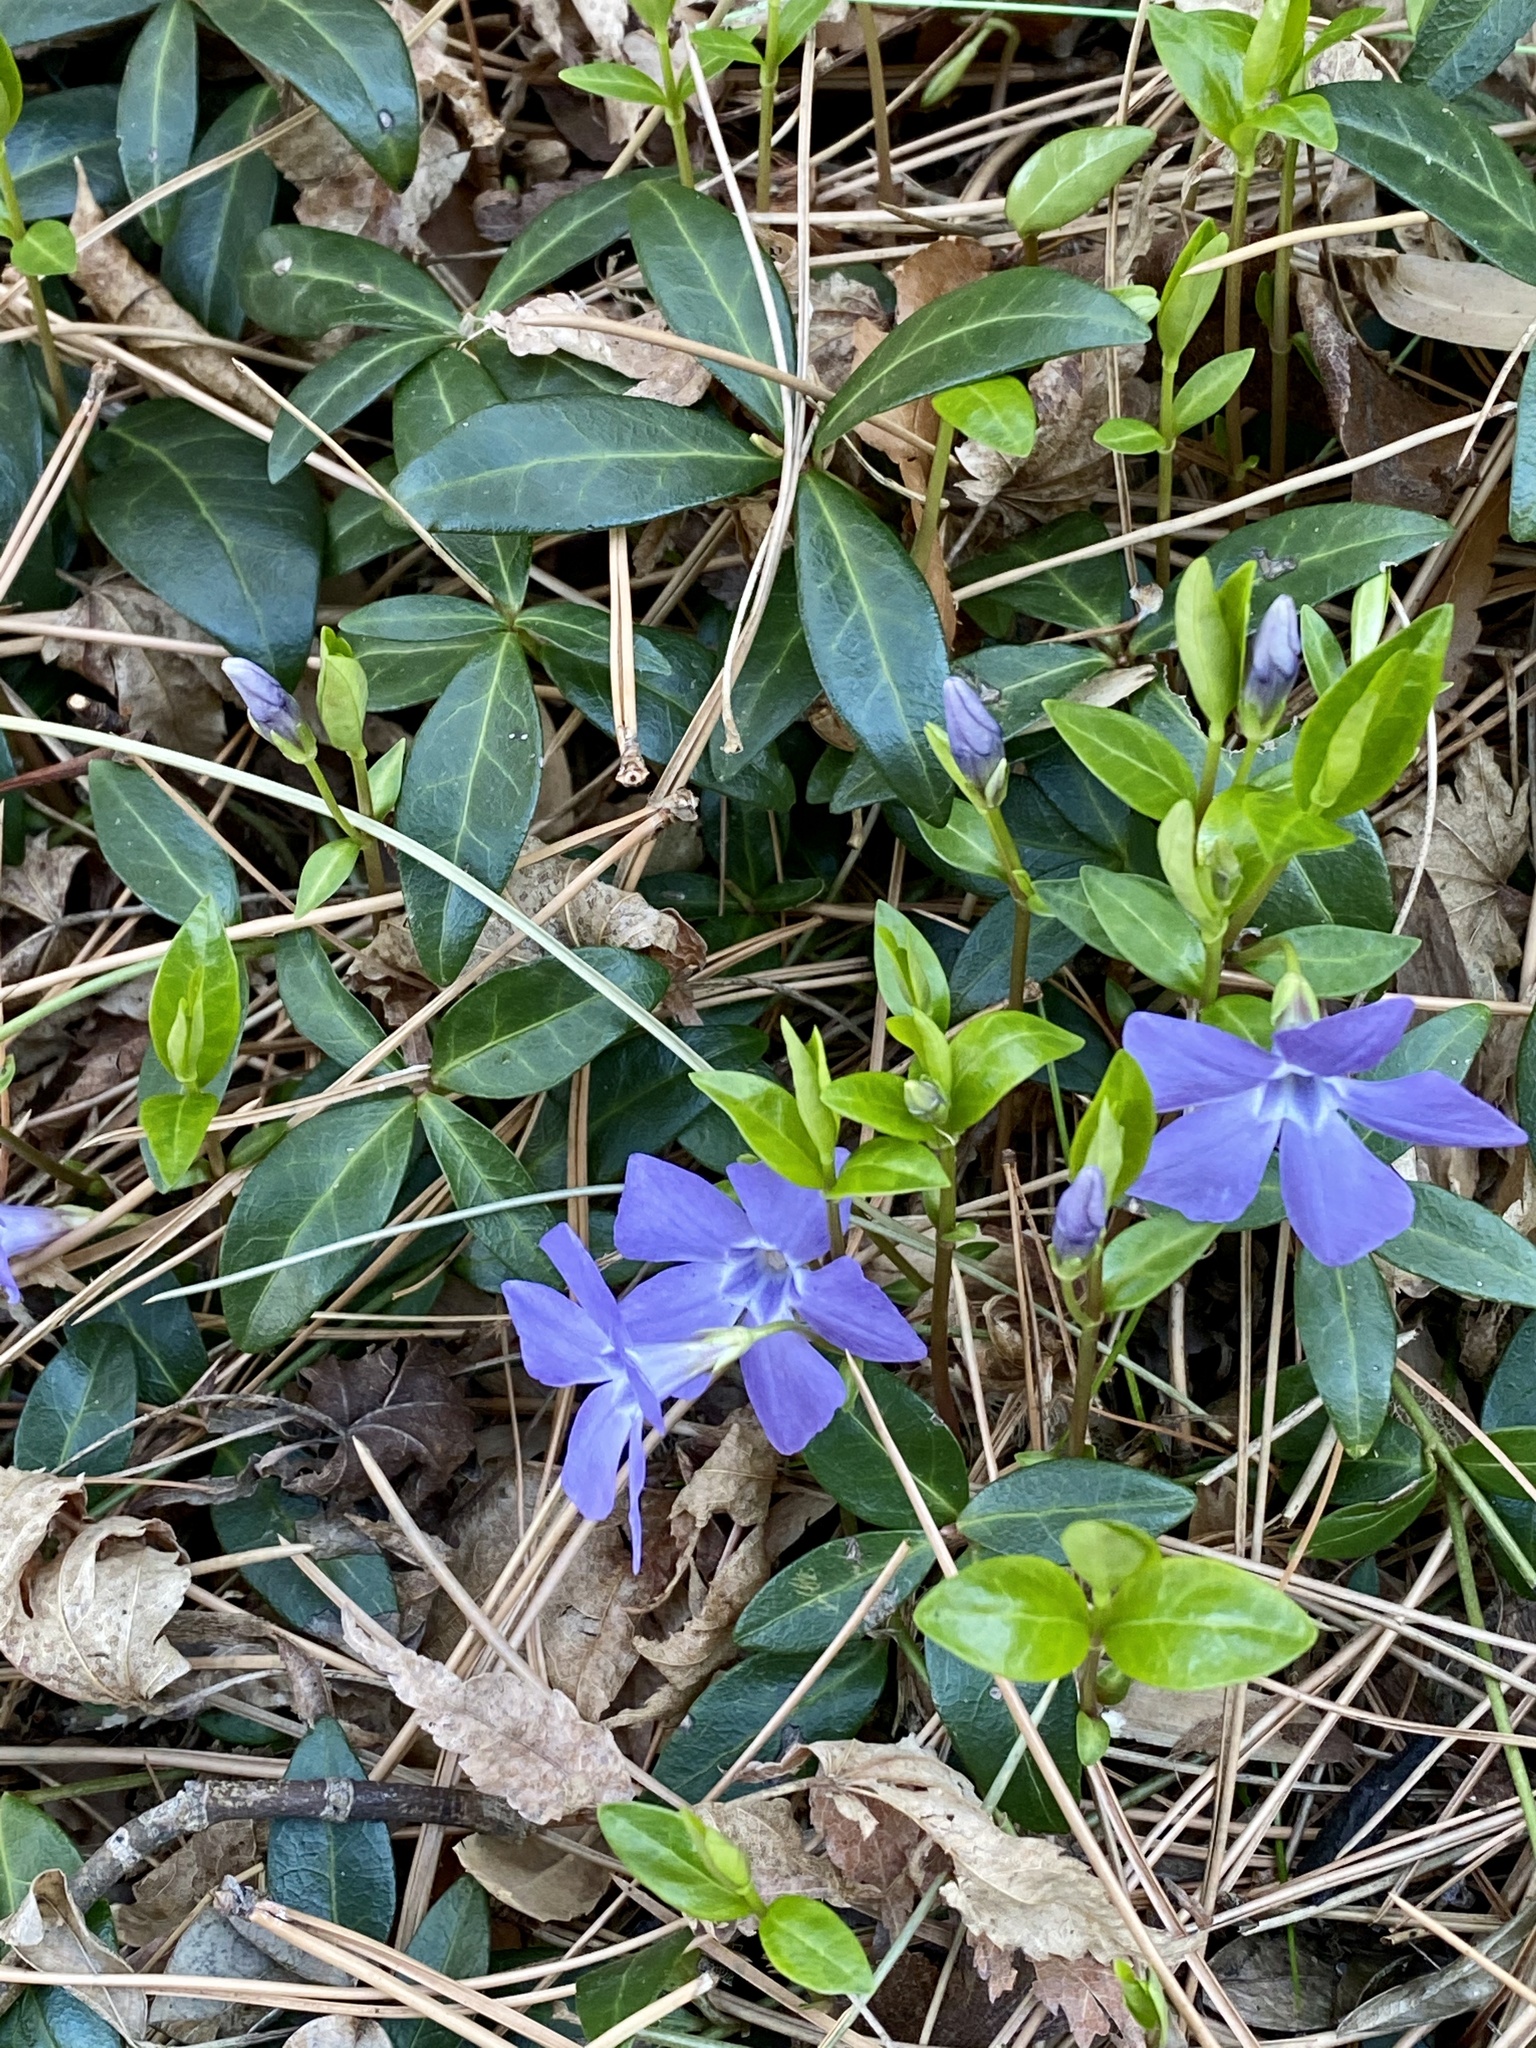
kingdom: Plantae
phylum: Tracheophyta
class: Magnoliopsida
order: Gentianales
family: Apocynaceae
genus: Vinca
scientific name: Vinca minor
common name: Lesser periwinkle
